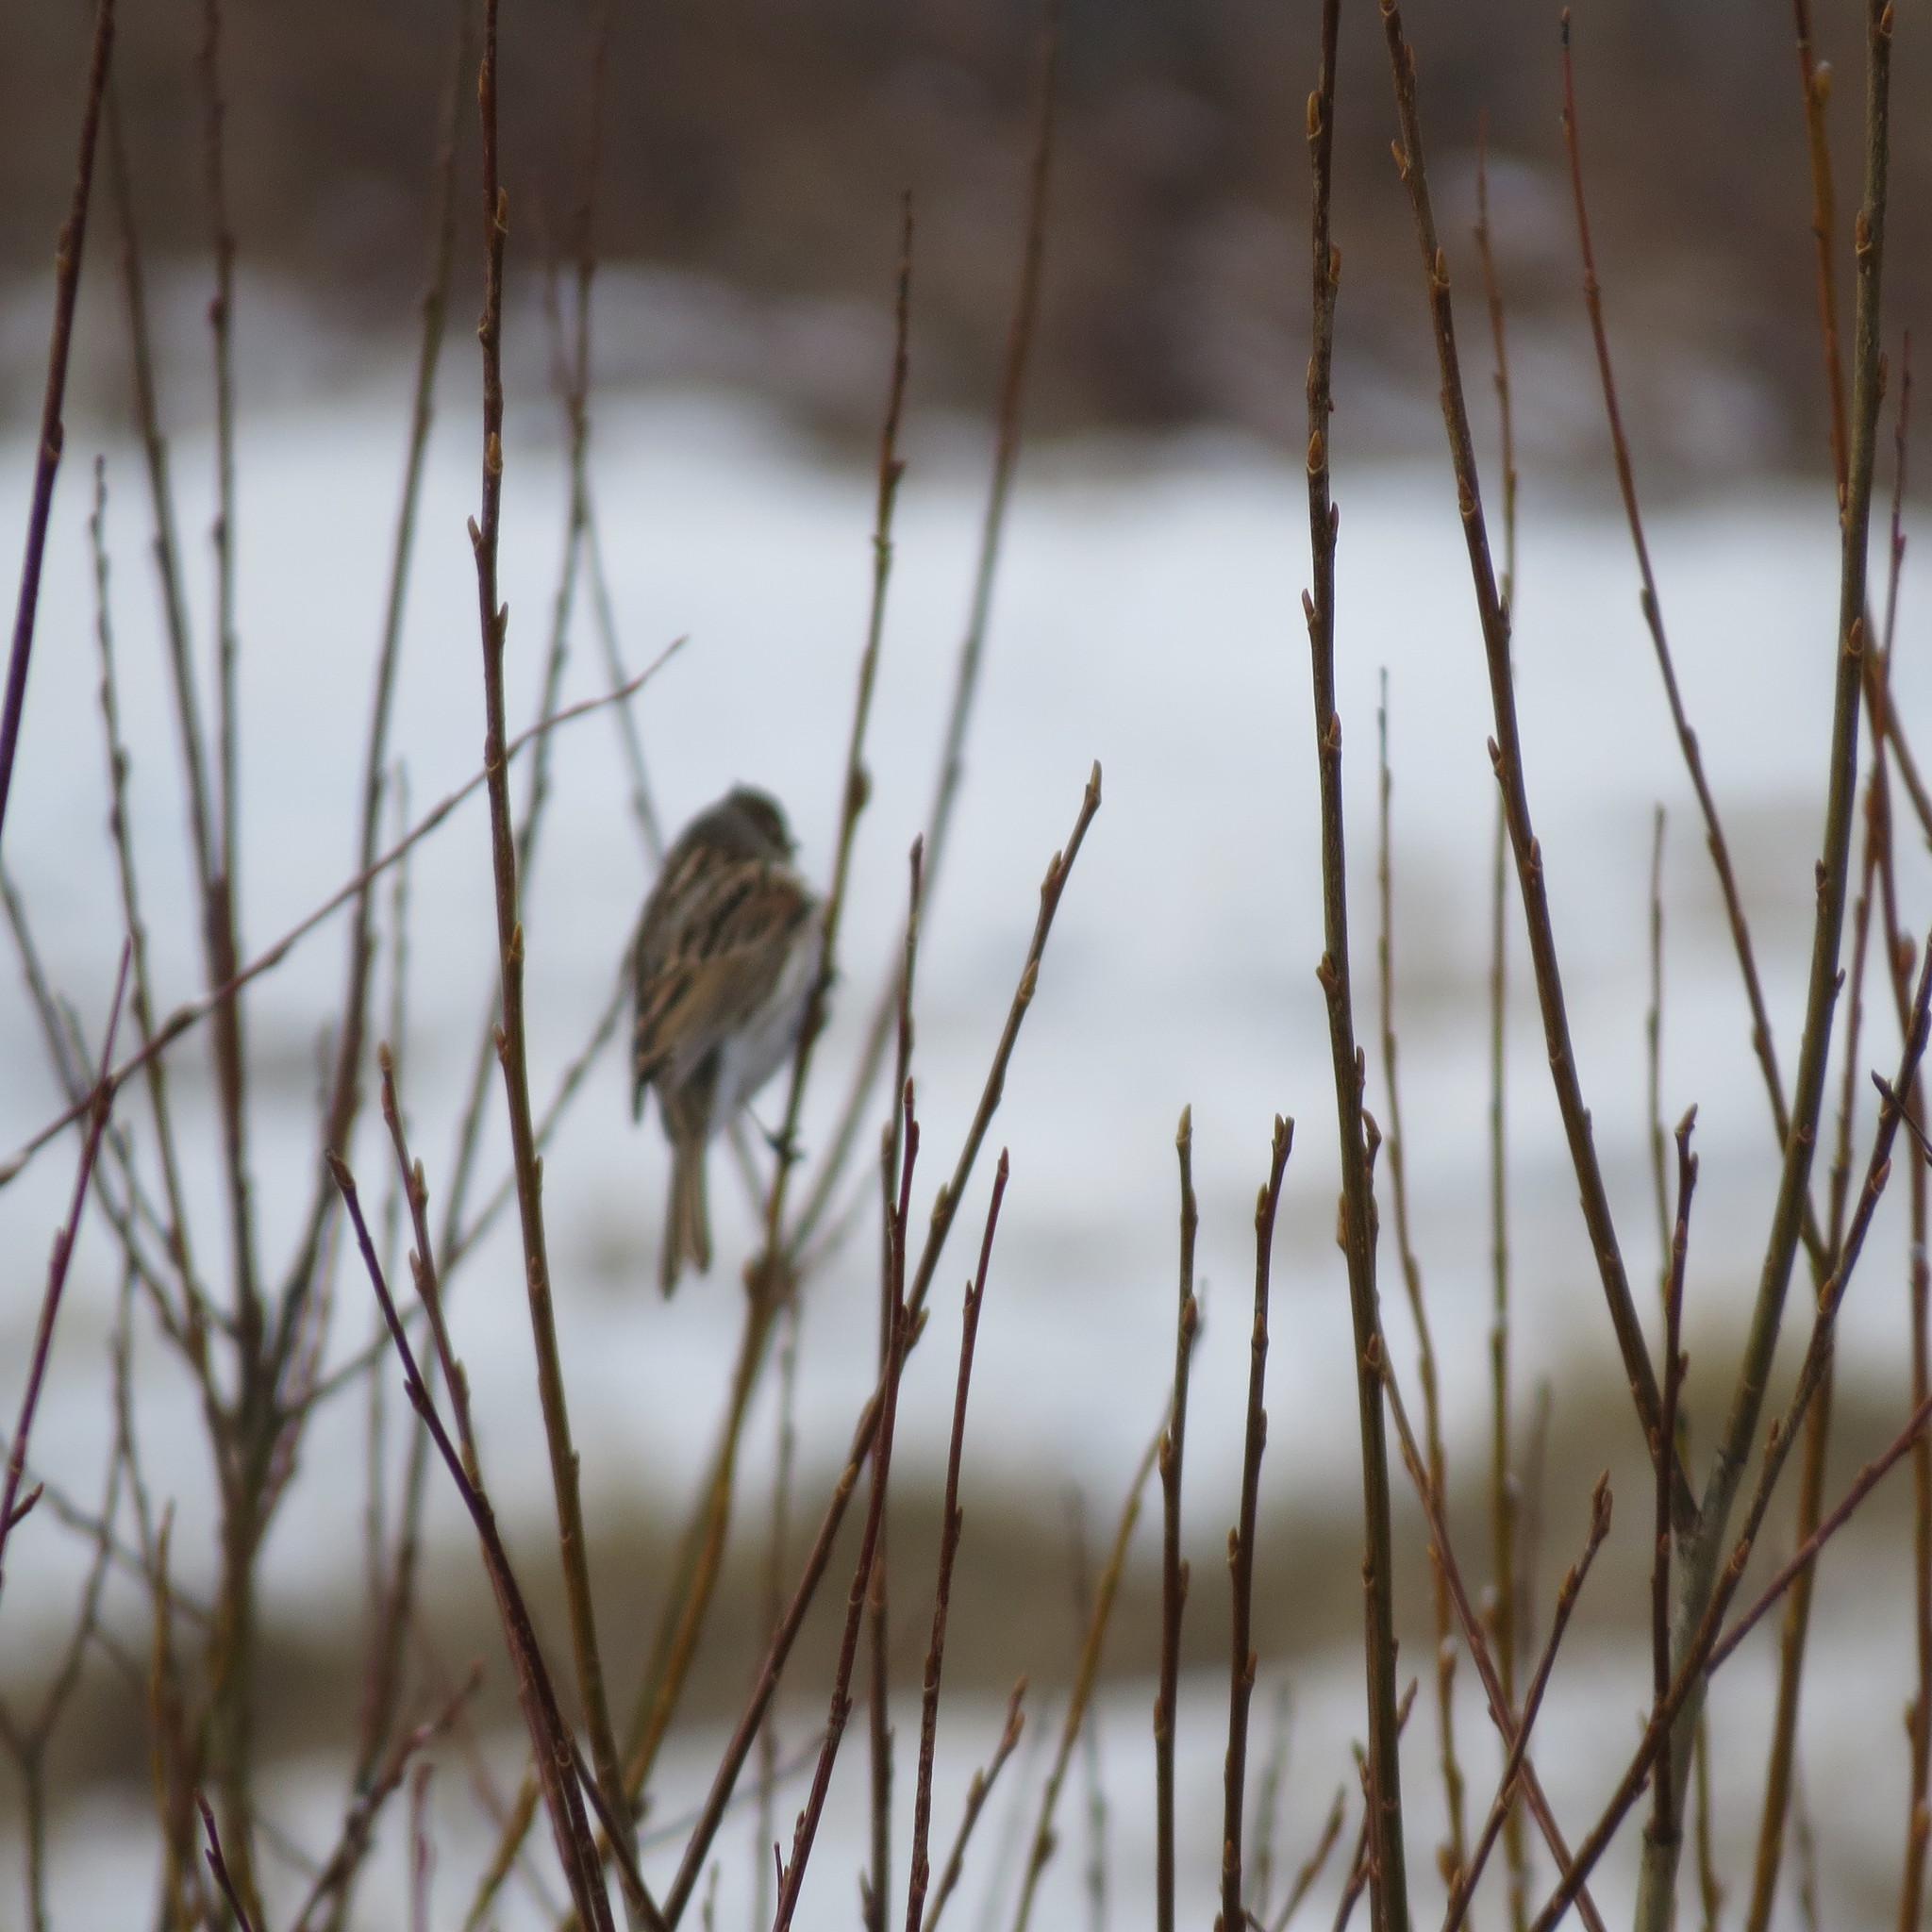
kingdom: Animalia
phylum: Chordata
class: Aves
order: Passeriformes
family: Emberizidae
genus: Emberiza
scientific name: Emberiza schoeniclus
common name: Reed bunting
